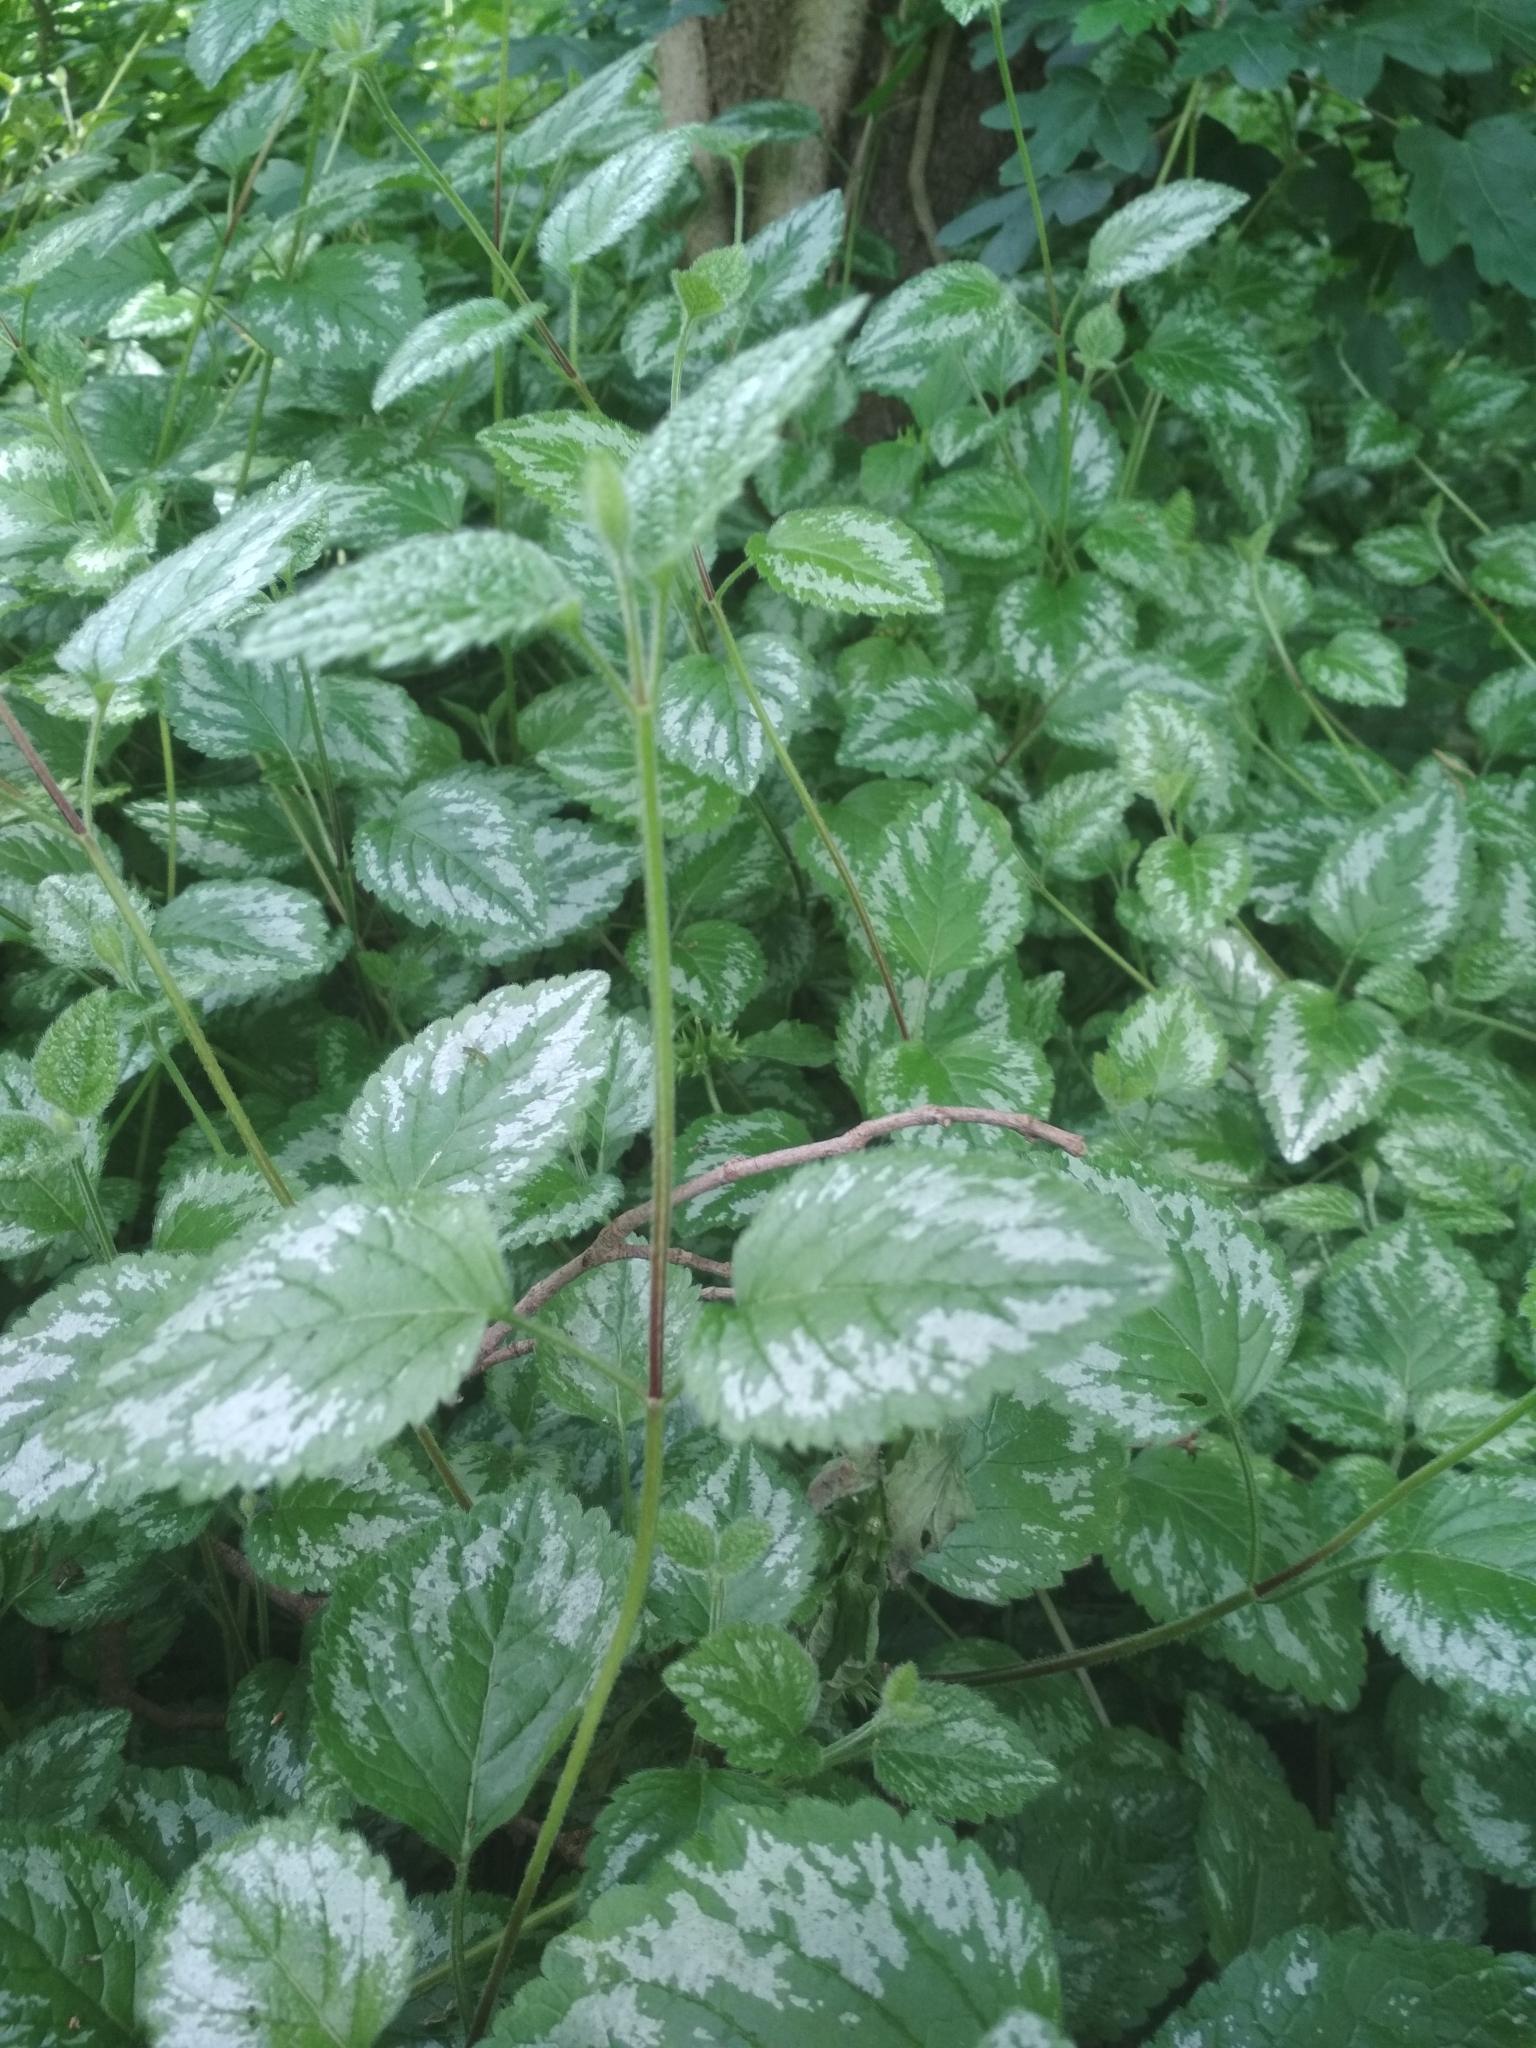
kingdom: Plantae
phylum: Tracheophyta
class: Magnoliopsida
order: Lamiales
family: Lamiaceae
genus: Lamium
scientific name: Lamium galeobdolon
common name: Yellow archangel
